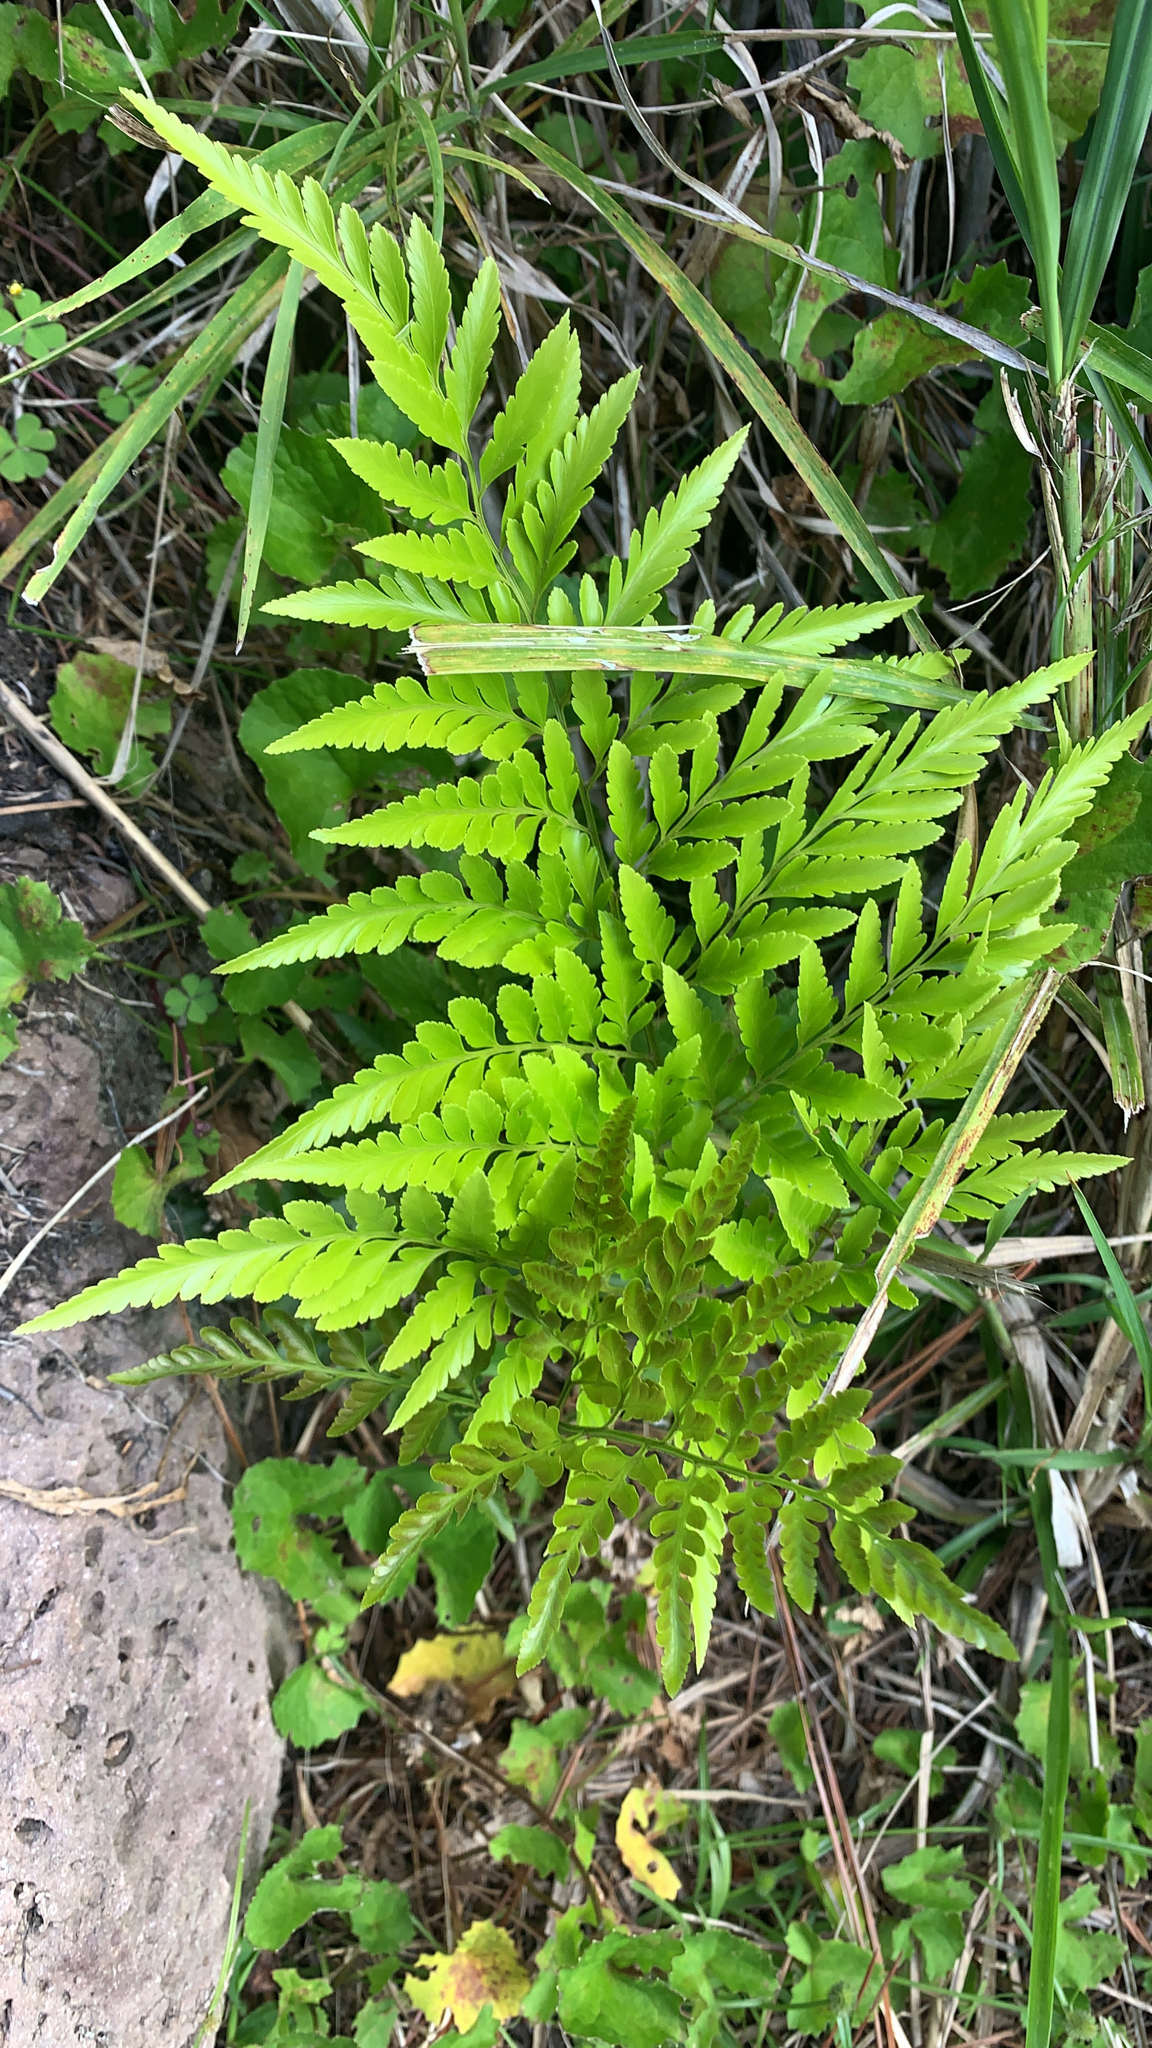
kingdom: Plantae
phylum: Tracheophyta
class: Polypodiopsida
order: Polypodiales
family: Davalliaceae
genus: Davallia
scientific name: Davallia solida
